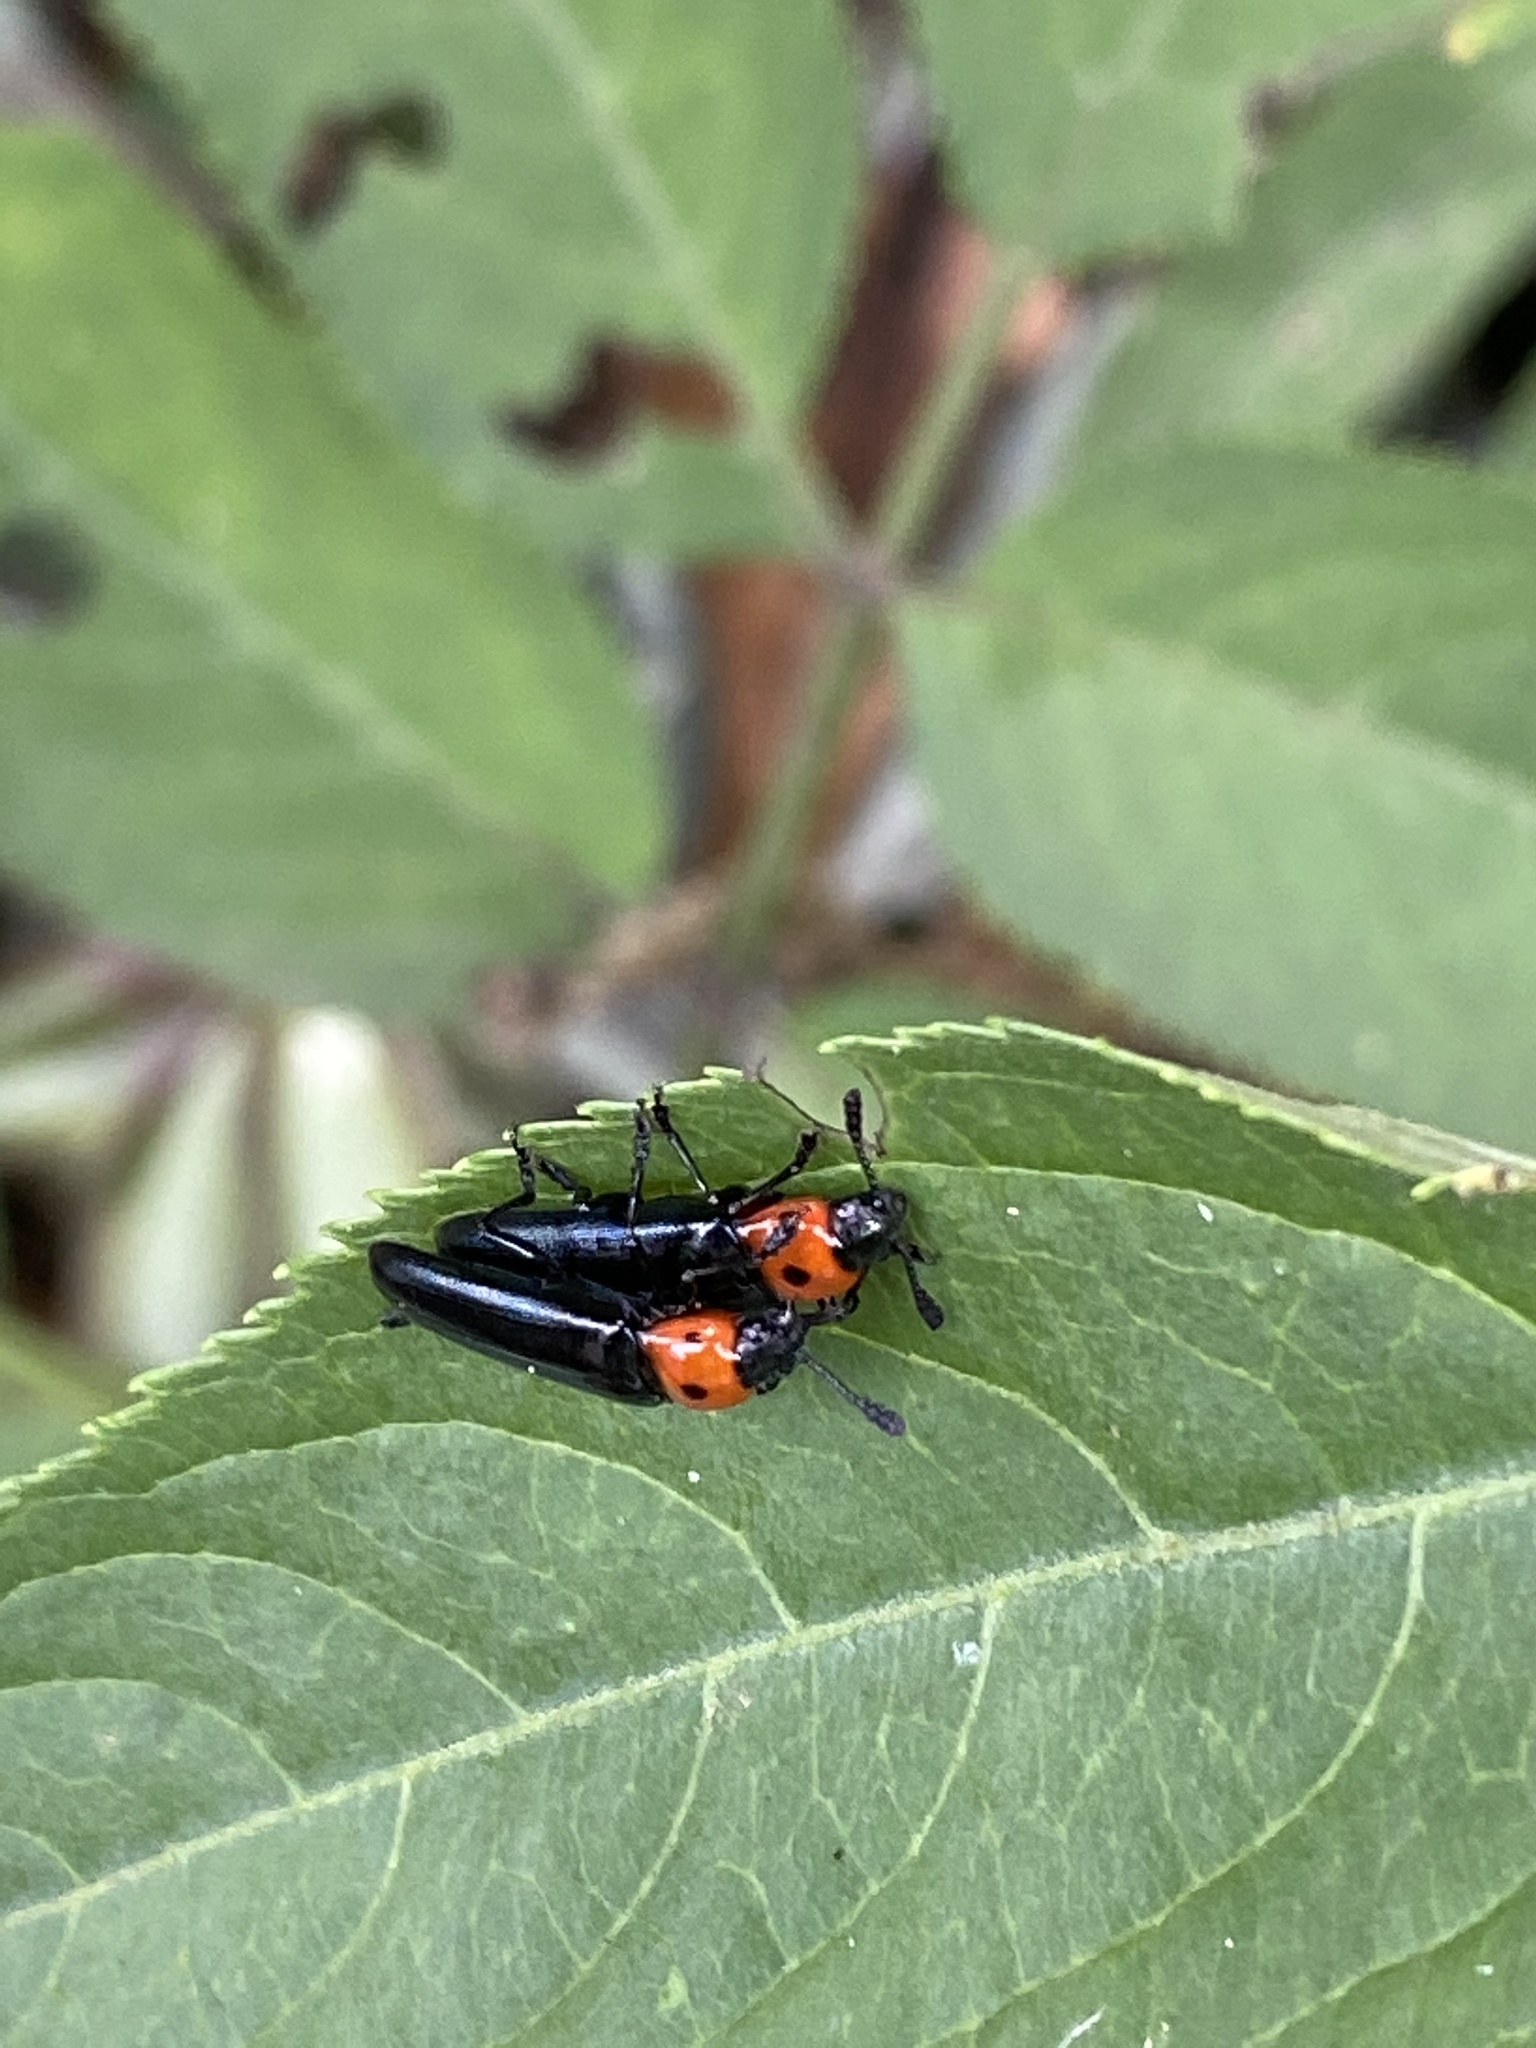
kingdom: Animalia
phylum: Arthropoda
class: Insecta
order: Coleoptera
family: Erotylidae
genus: Tetraphala
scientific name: Tetraphala collaris
